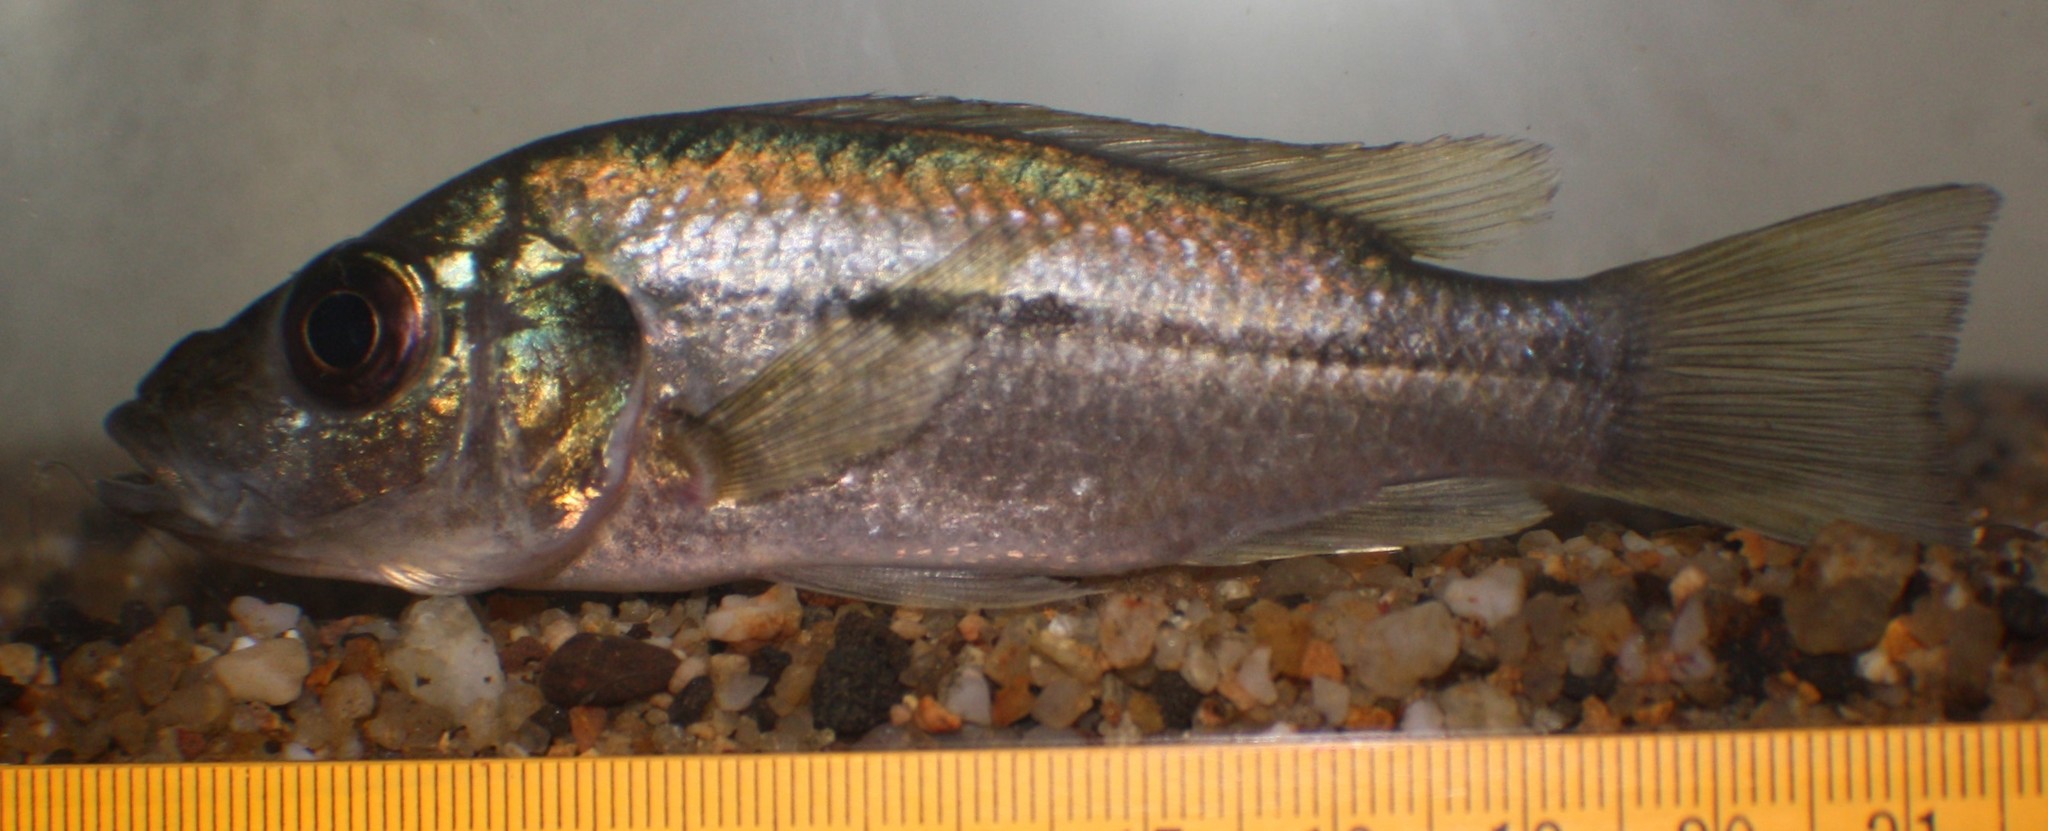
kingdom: Animalia
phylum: Chordata
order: Perciformes
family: Cichlidae
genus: Stomatepia
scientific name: Stomatepia mariae
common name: Nsess
